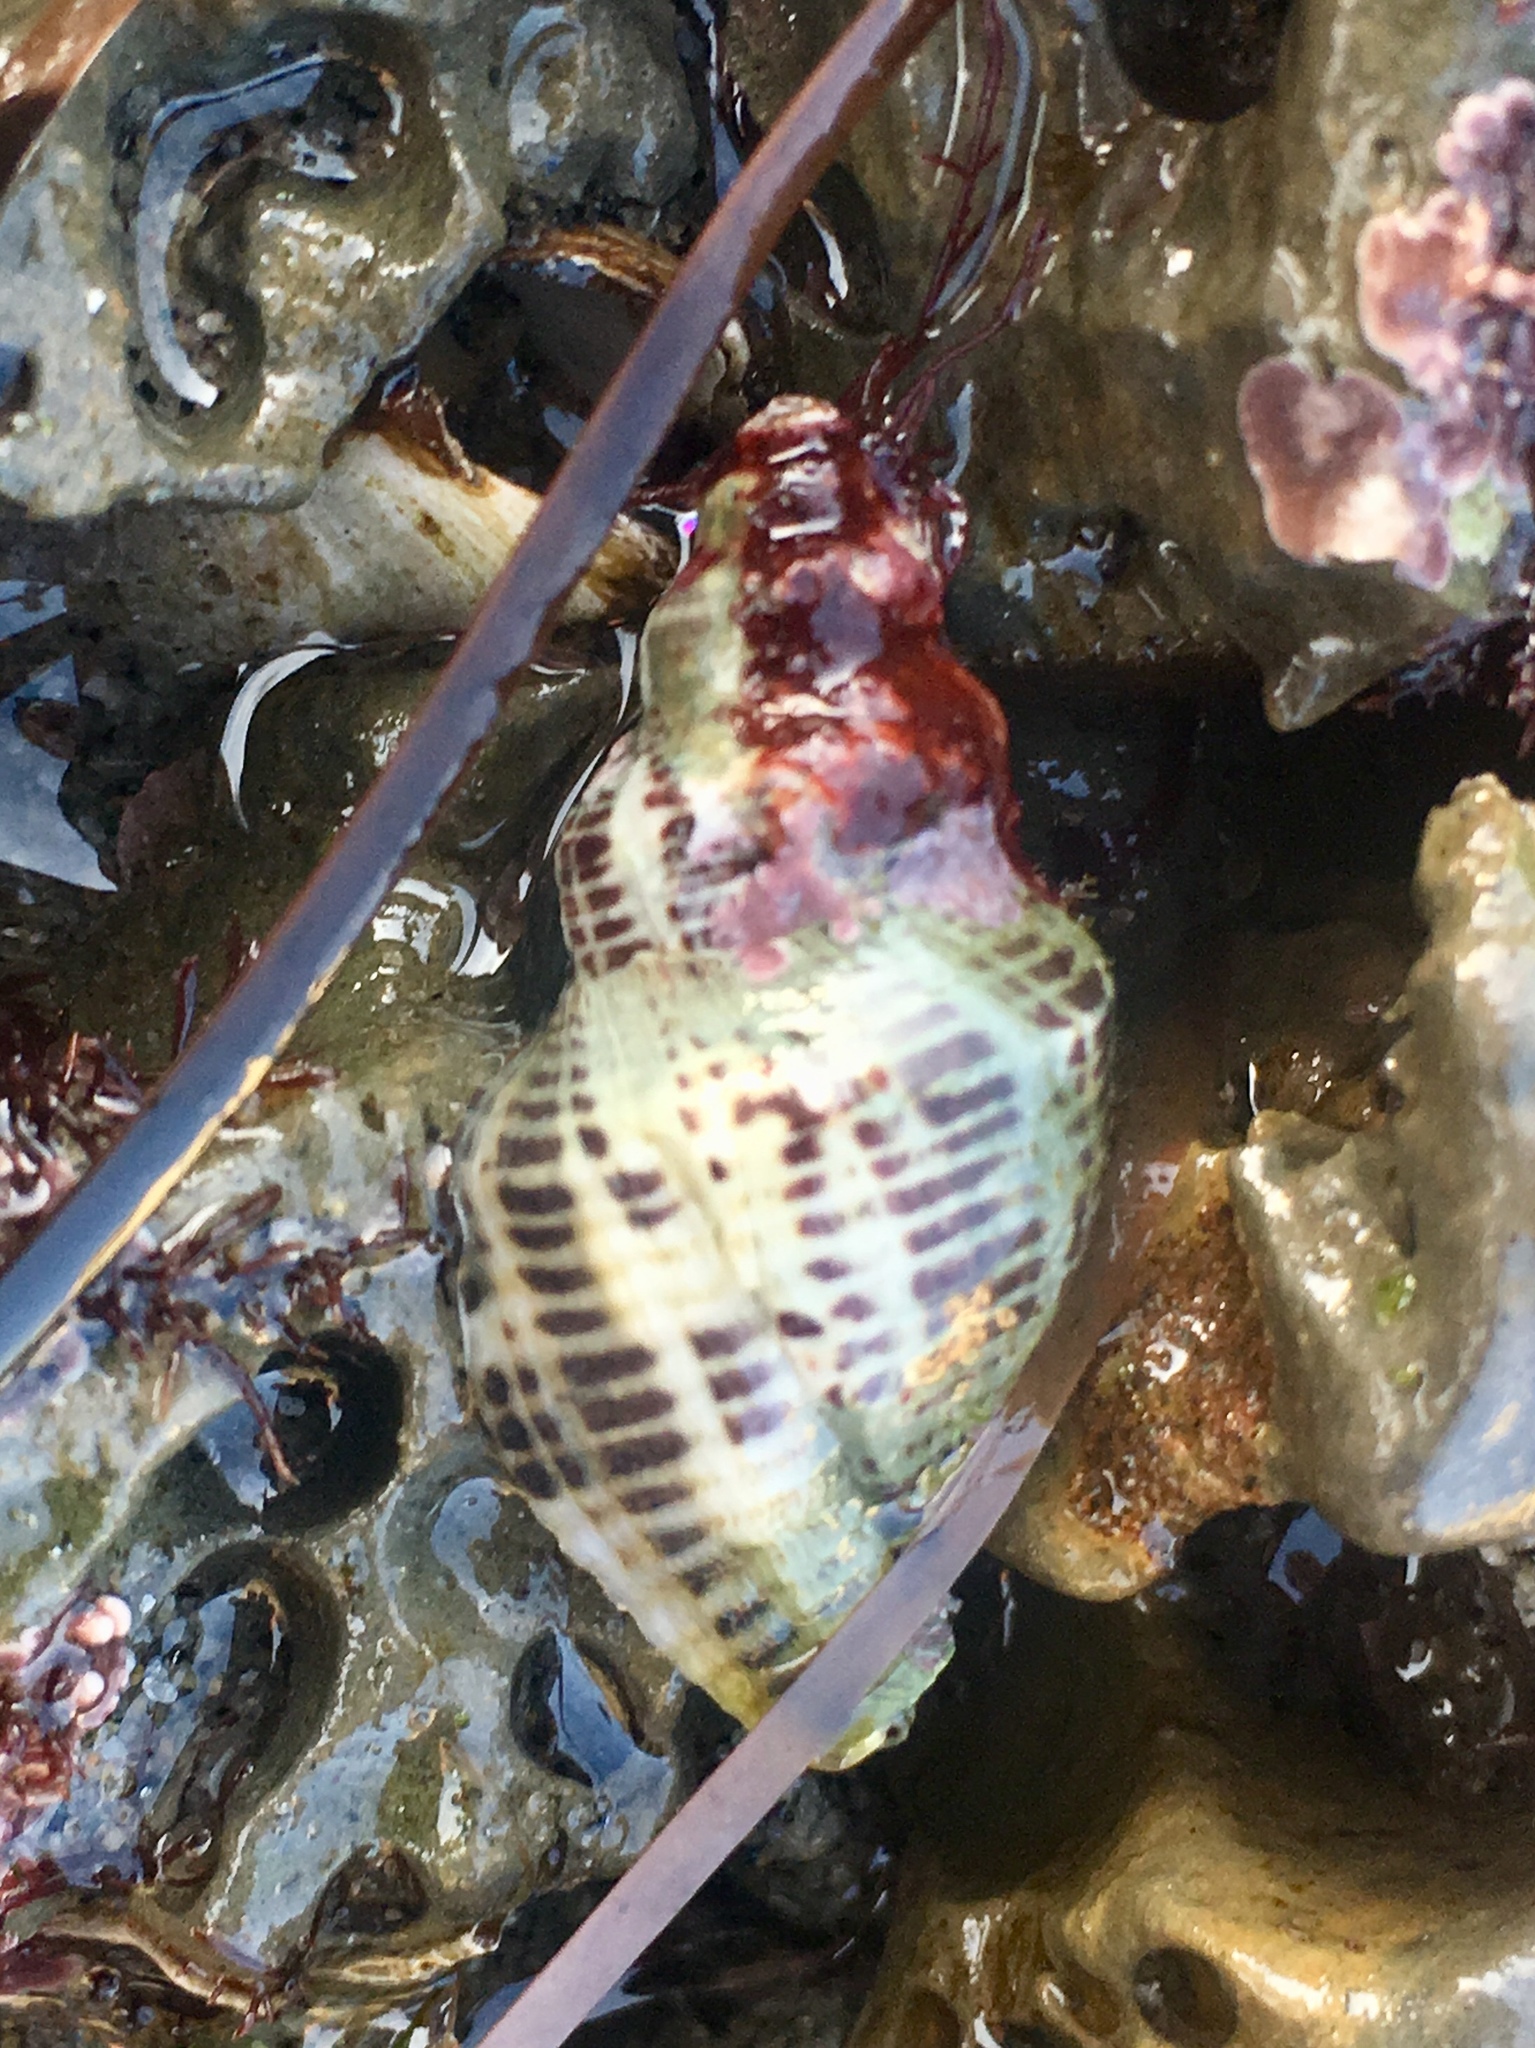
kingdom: Animalia
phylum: Mollusca
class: Gastropoda
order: Neogastropoda
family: Muricidae
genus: Acanthinucella
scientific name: Acanthinucella spirata
